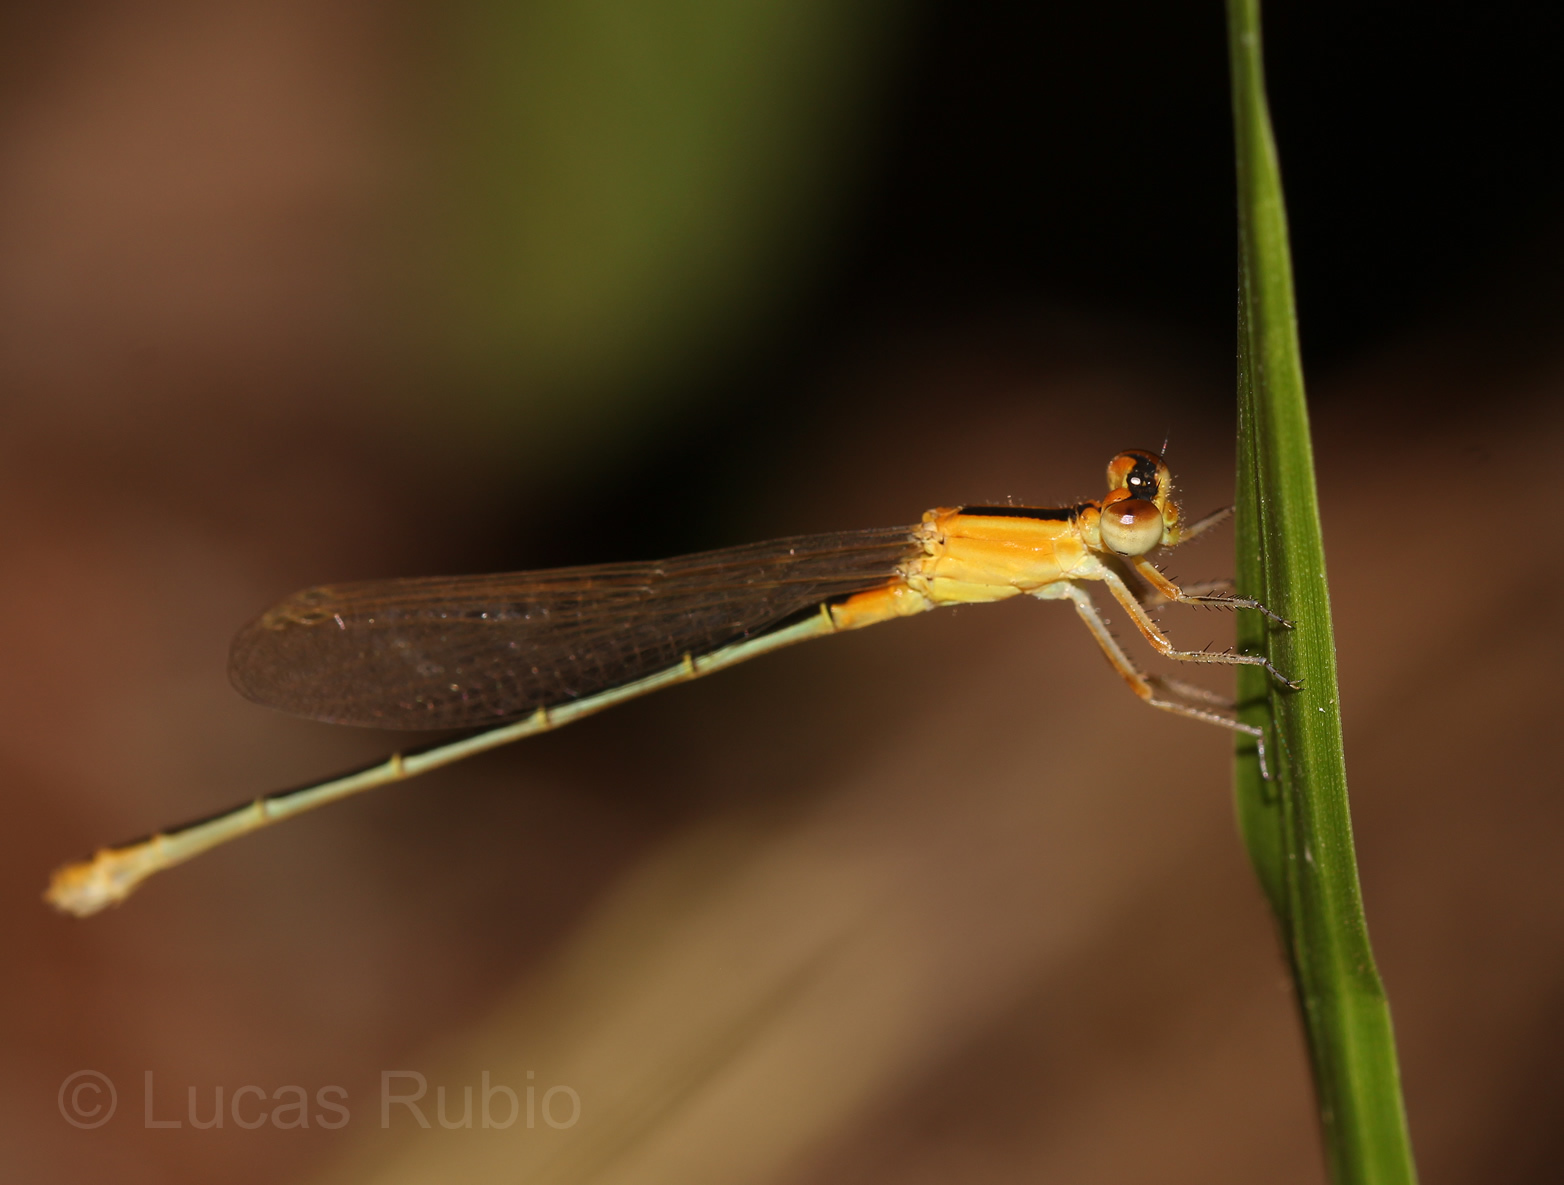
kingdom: Animalia
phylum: Arthropoda
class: Insecta
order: Odonata
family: Coenagrionidae
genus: Ischnura
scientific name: Ischnura fluviatilis
